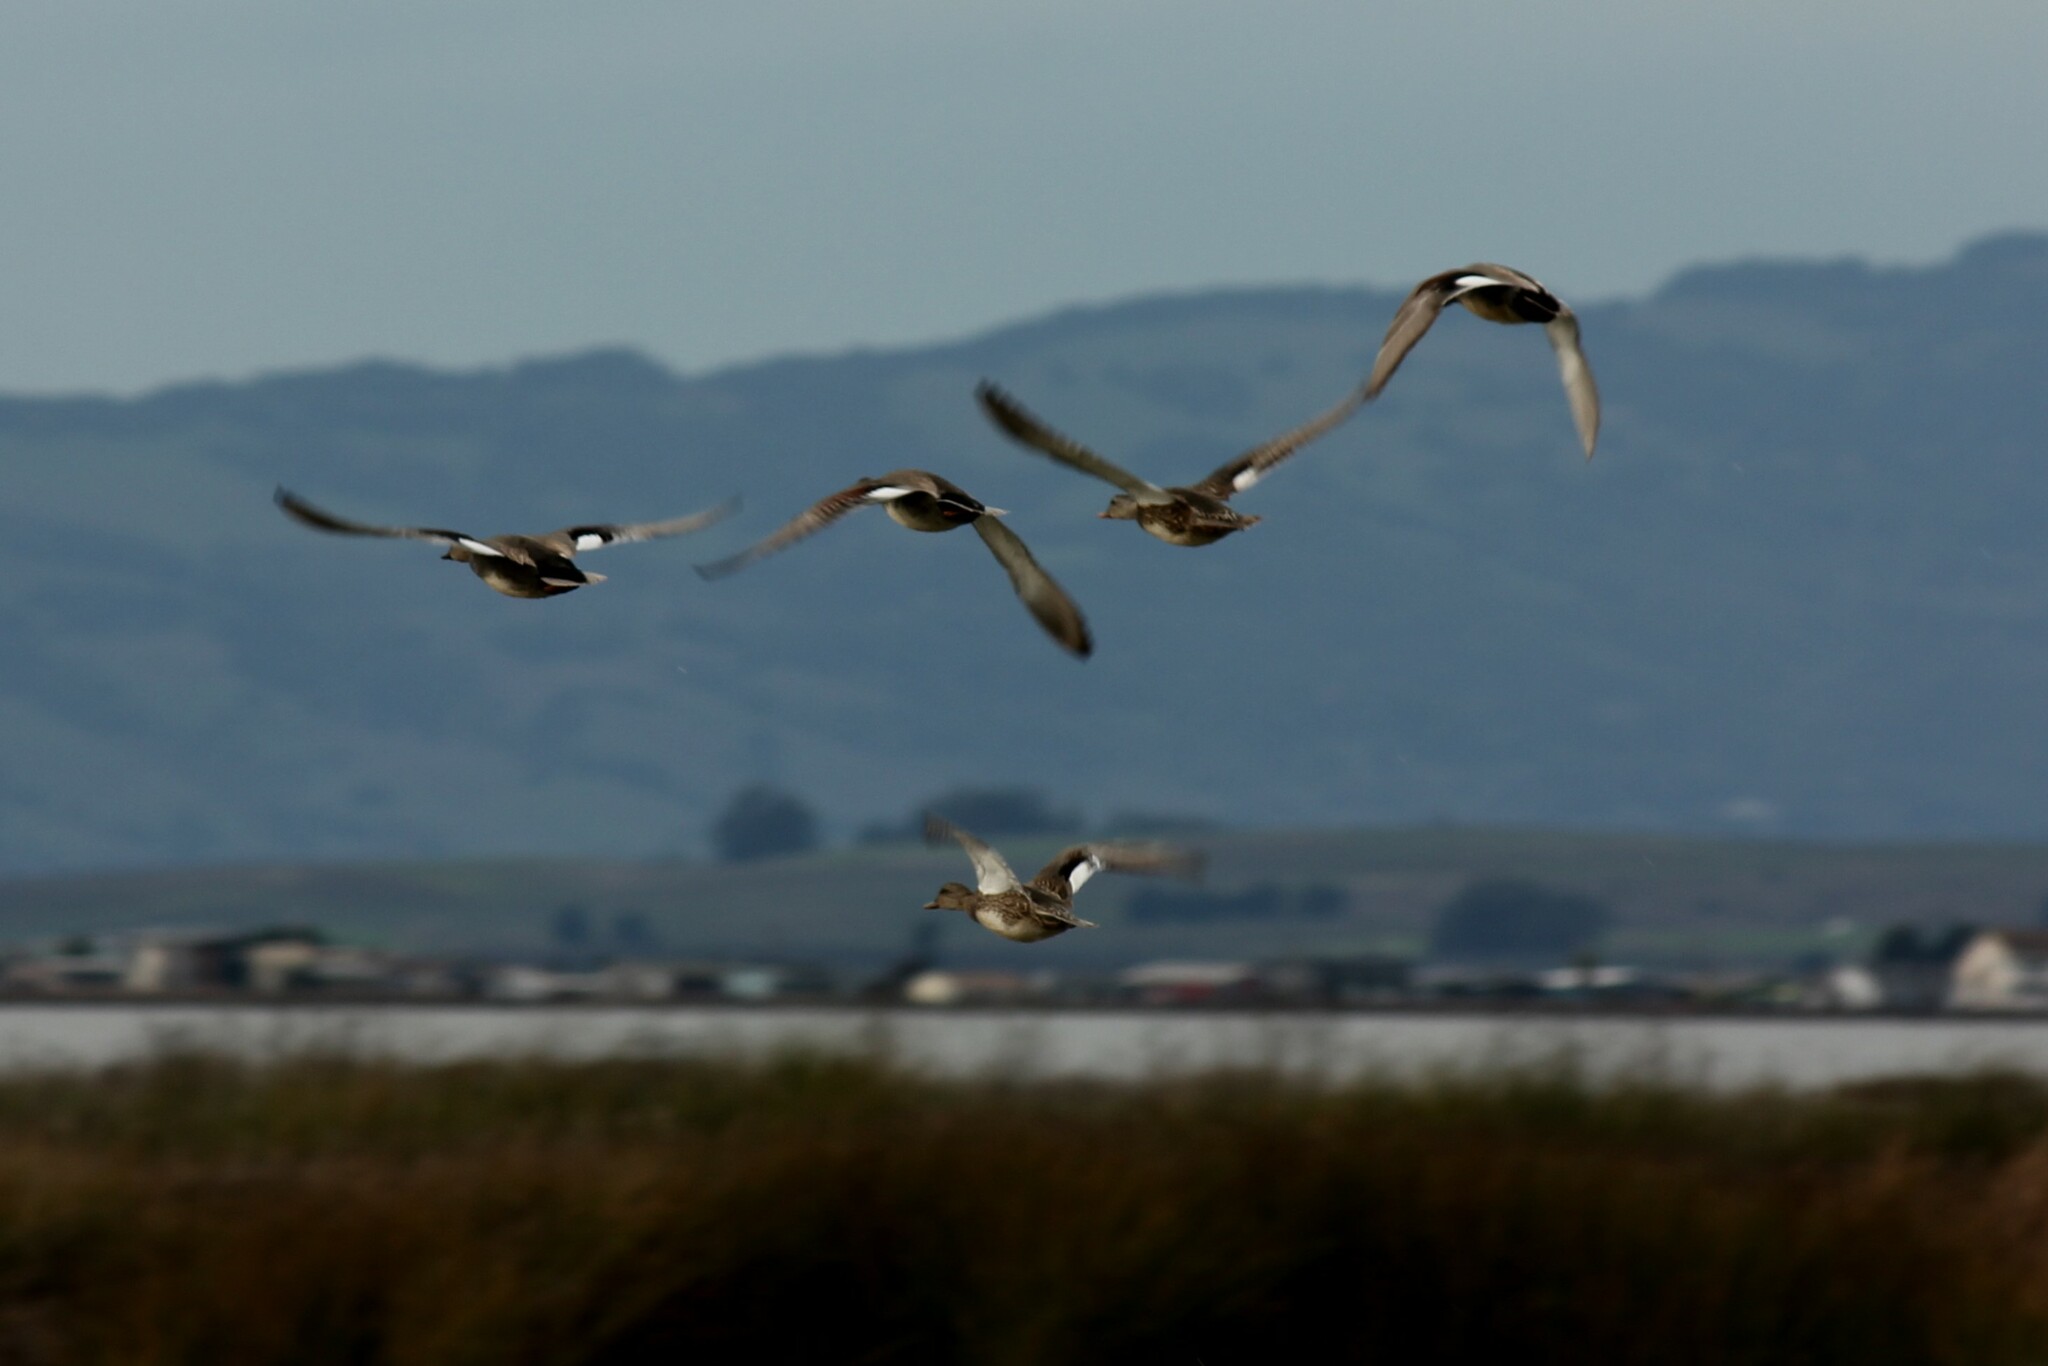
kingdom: Animalia
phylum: Chordata
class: Aves
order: Anseriformes
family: Anatidae
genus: Mareca
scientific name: Mareca strepera
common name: Gadwall
